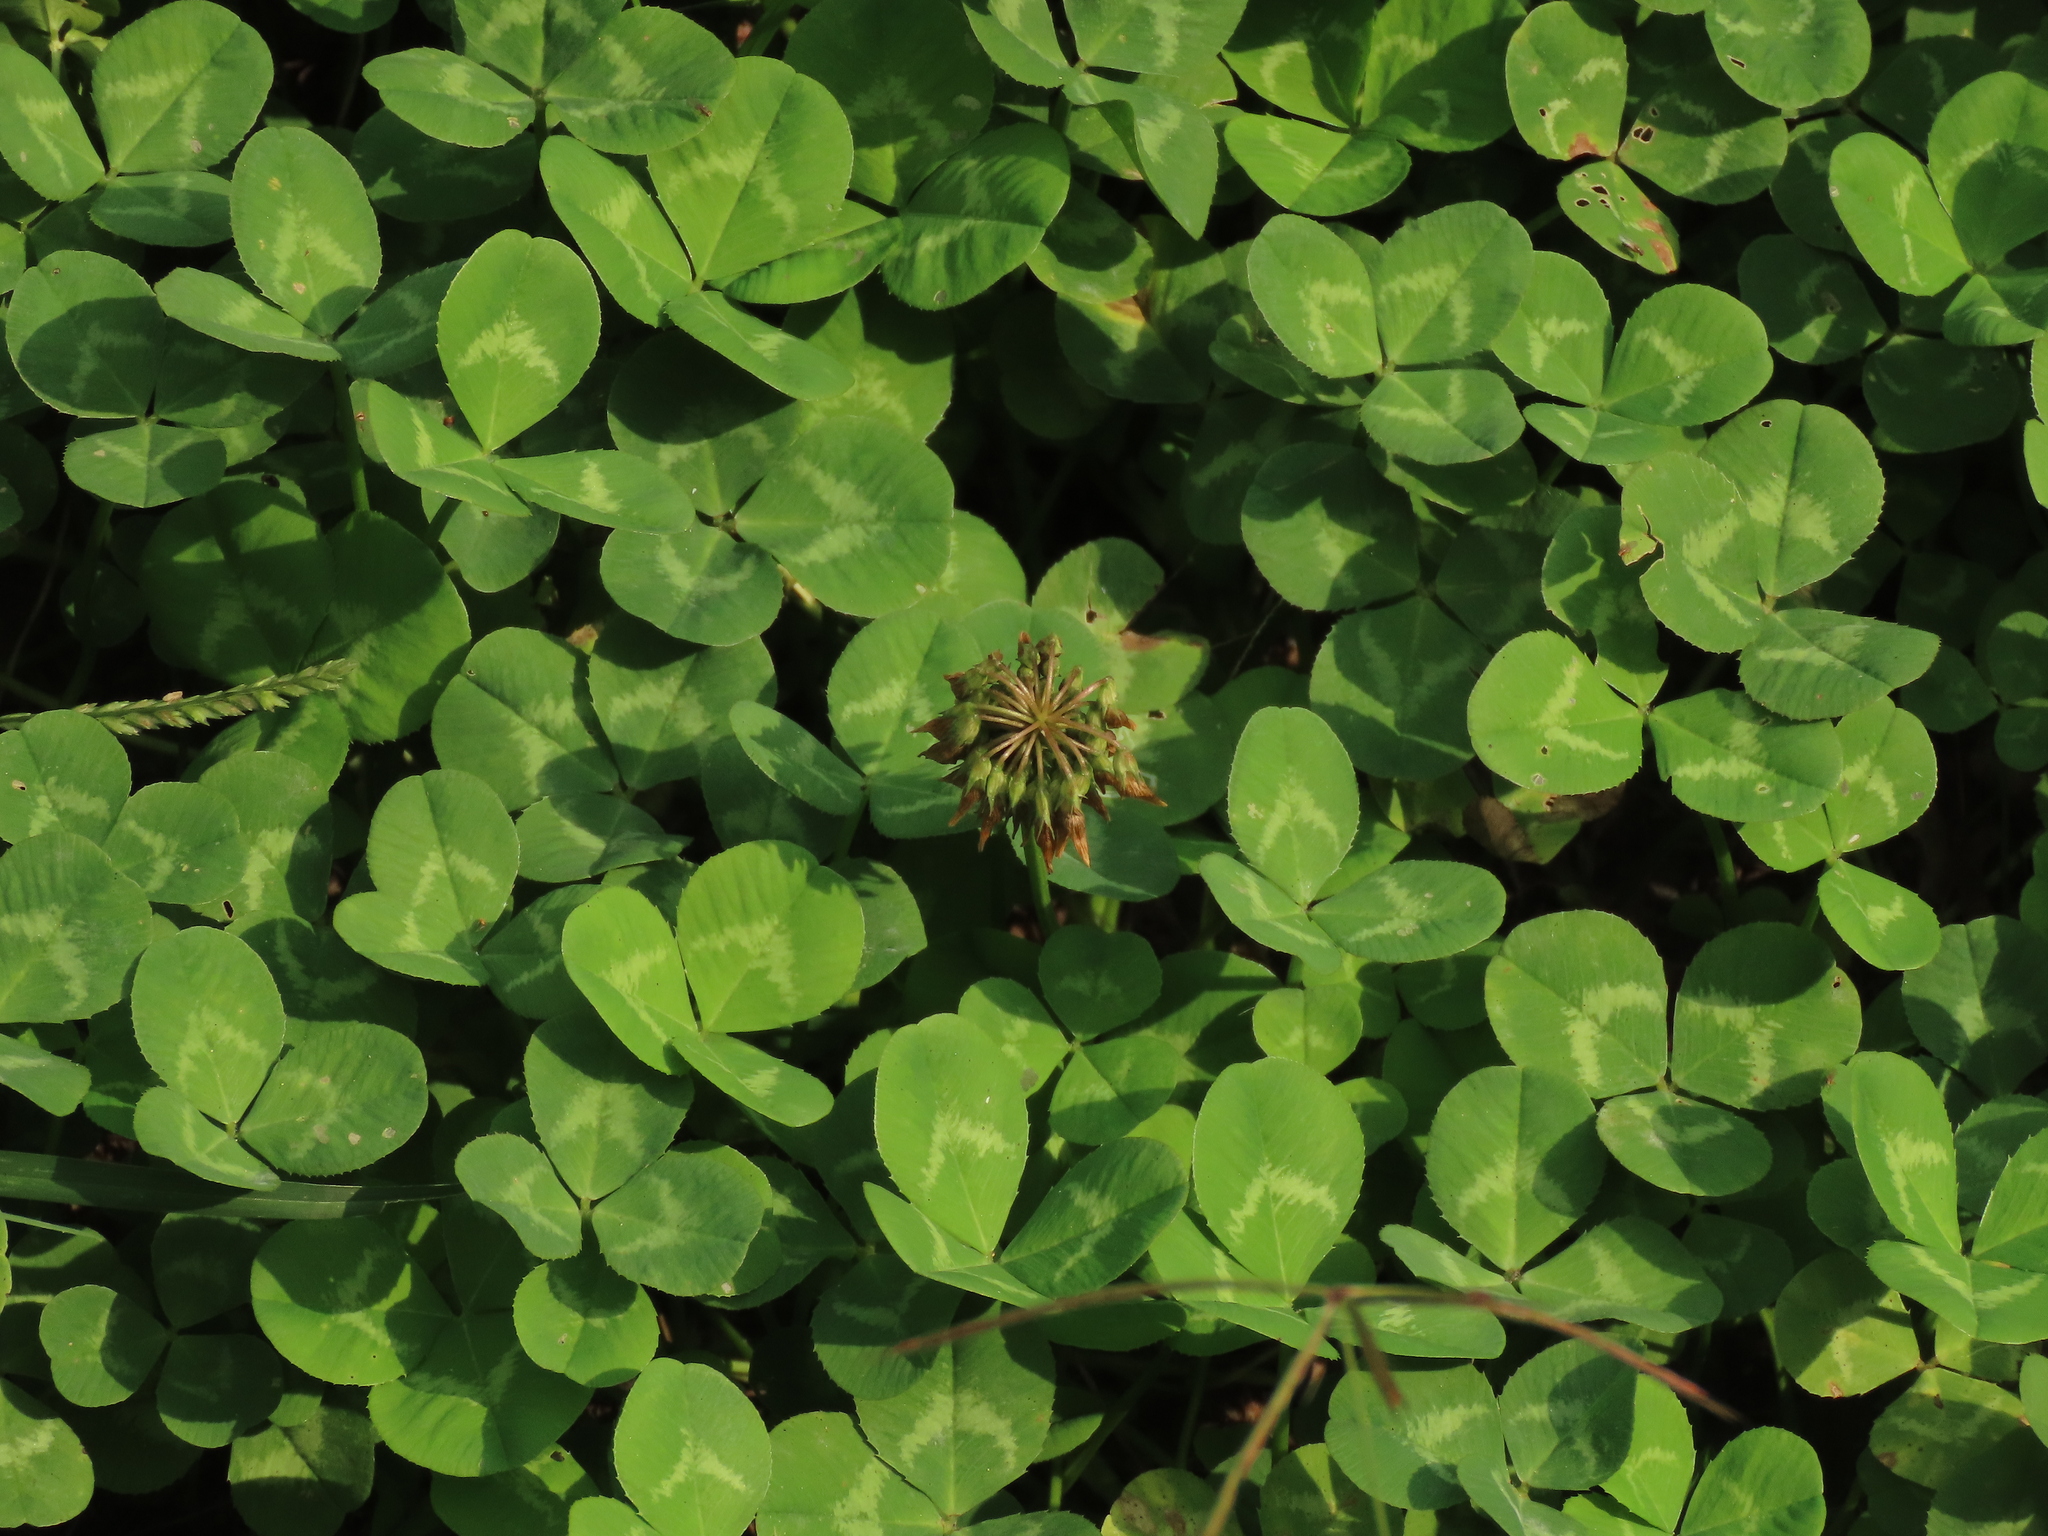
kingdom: Plantae
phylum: Tracheophyta
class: Magnoliopsida
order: Fabales
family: Fabaceae
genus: Trifolium
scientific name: Trifolium repens
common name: White clover
